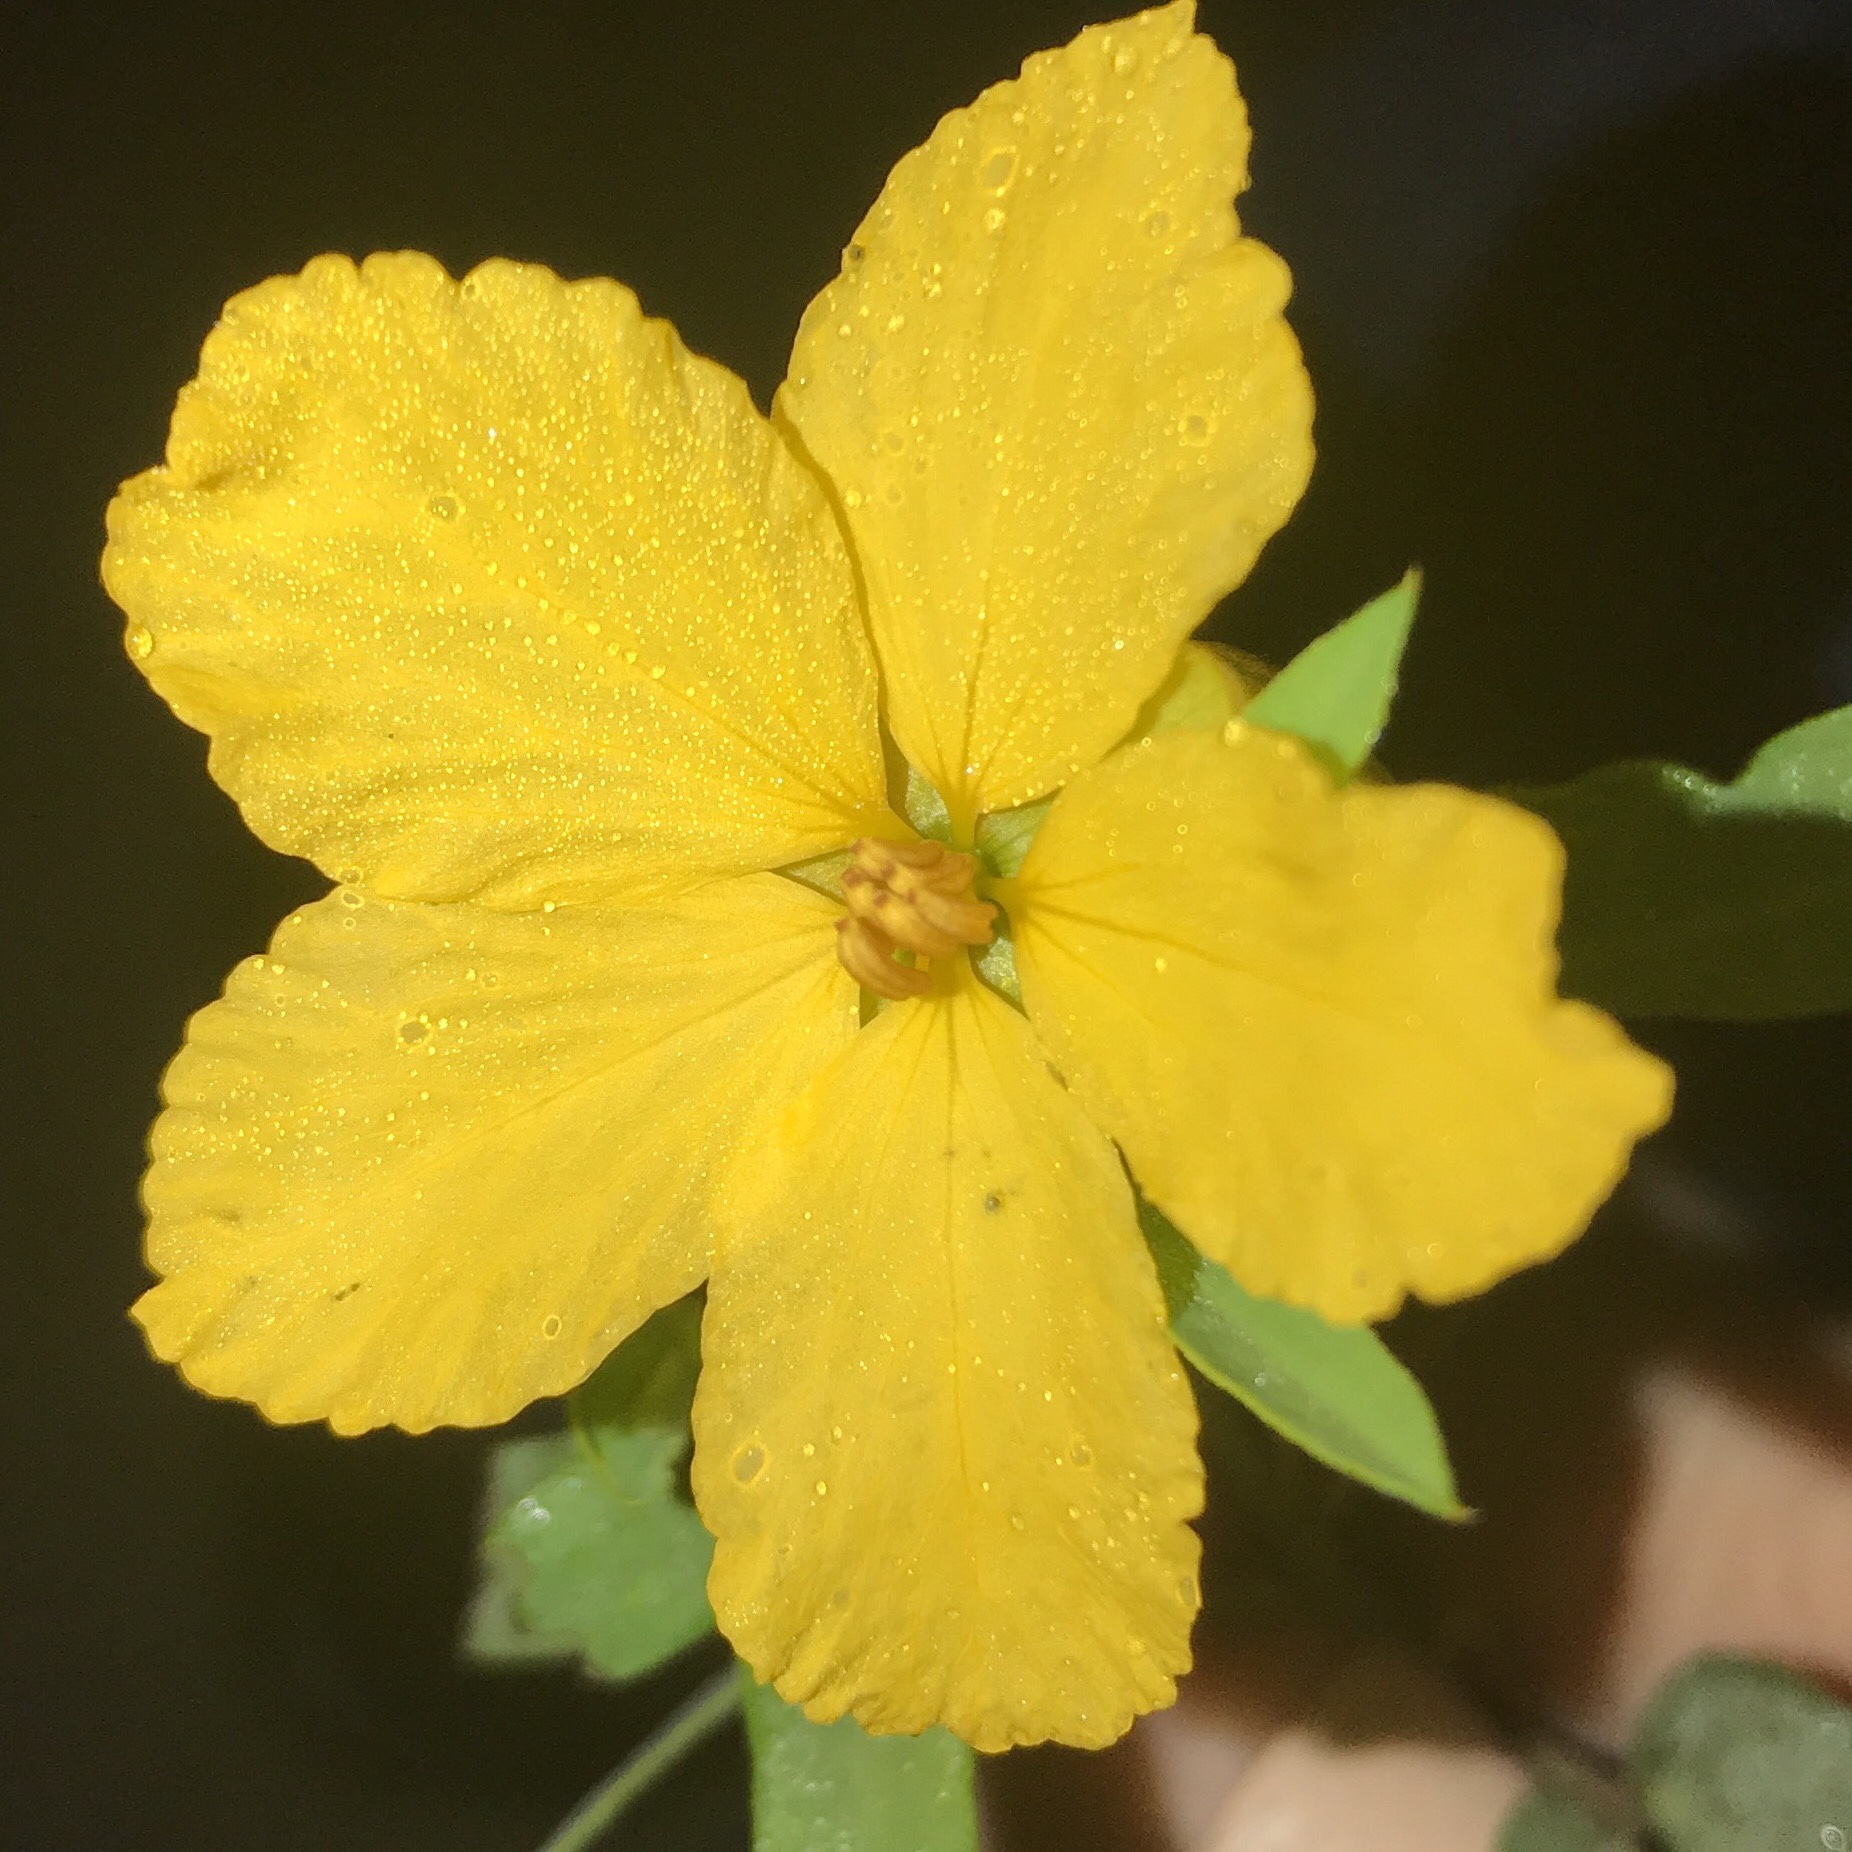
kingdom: Plantae
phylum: Tracheophyta
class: Magnoliopsida
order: Fabales
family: Fabaceae
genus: Senna
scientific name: Senna roemeriana
